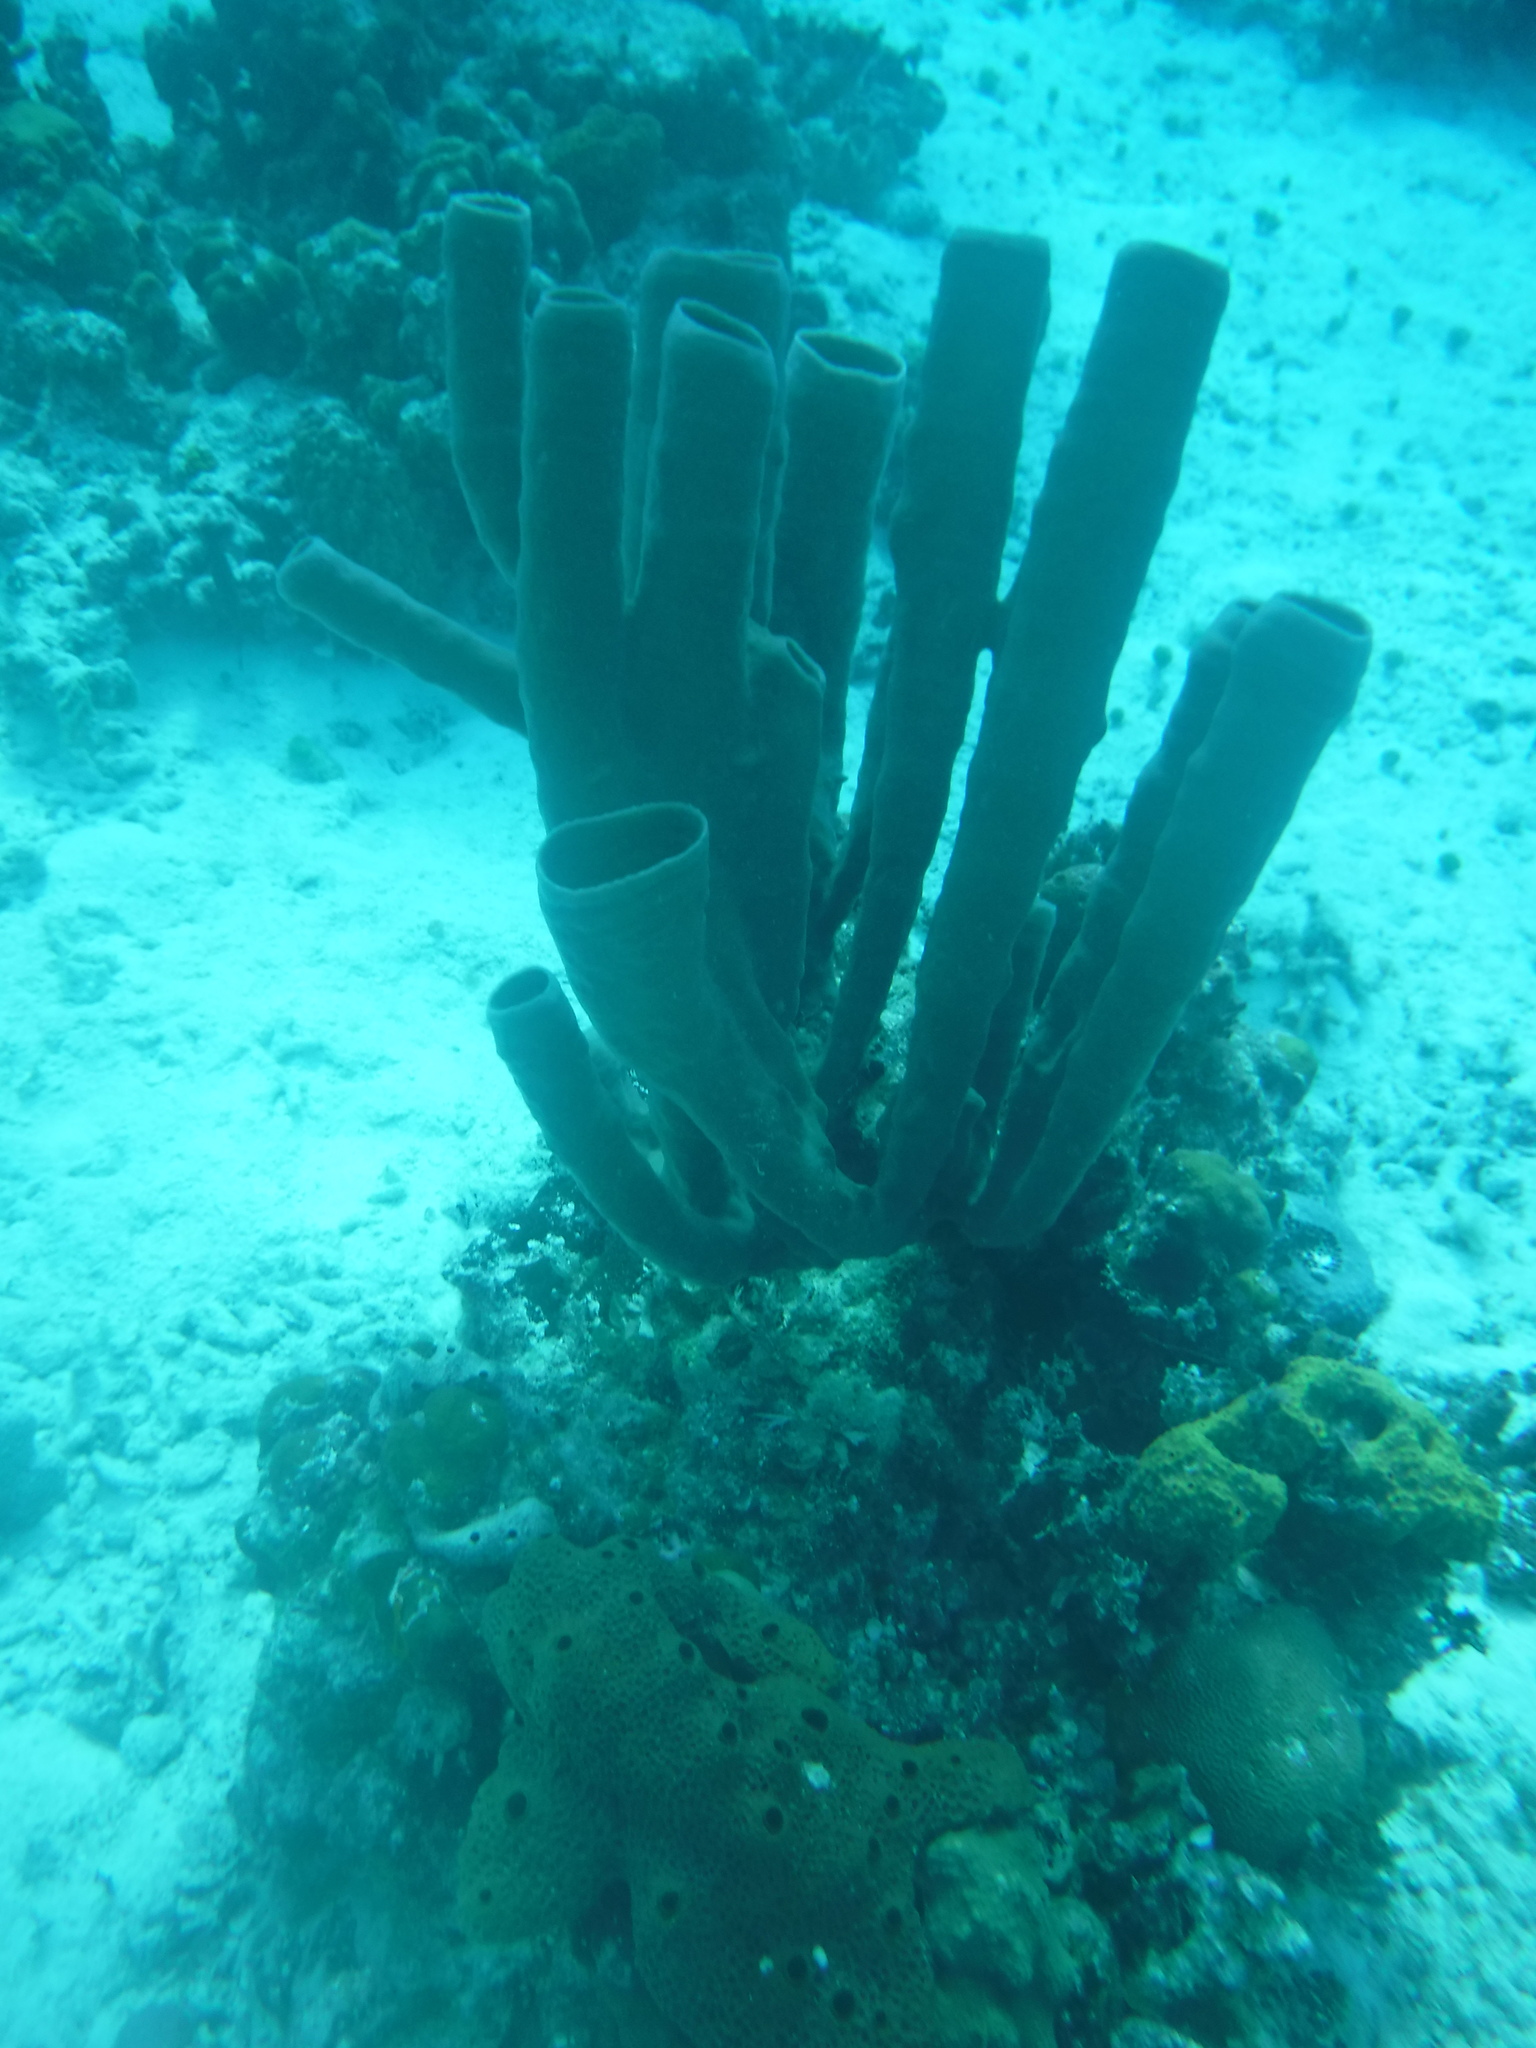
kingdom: Animalia
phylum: Porifera
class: Demospongiae
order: Haplosclerida
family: Callyspongiidae
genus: Callyspongia
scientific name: Callyspongia aculeata
